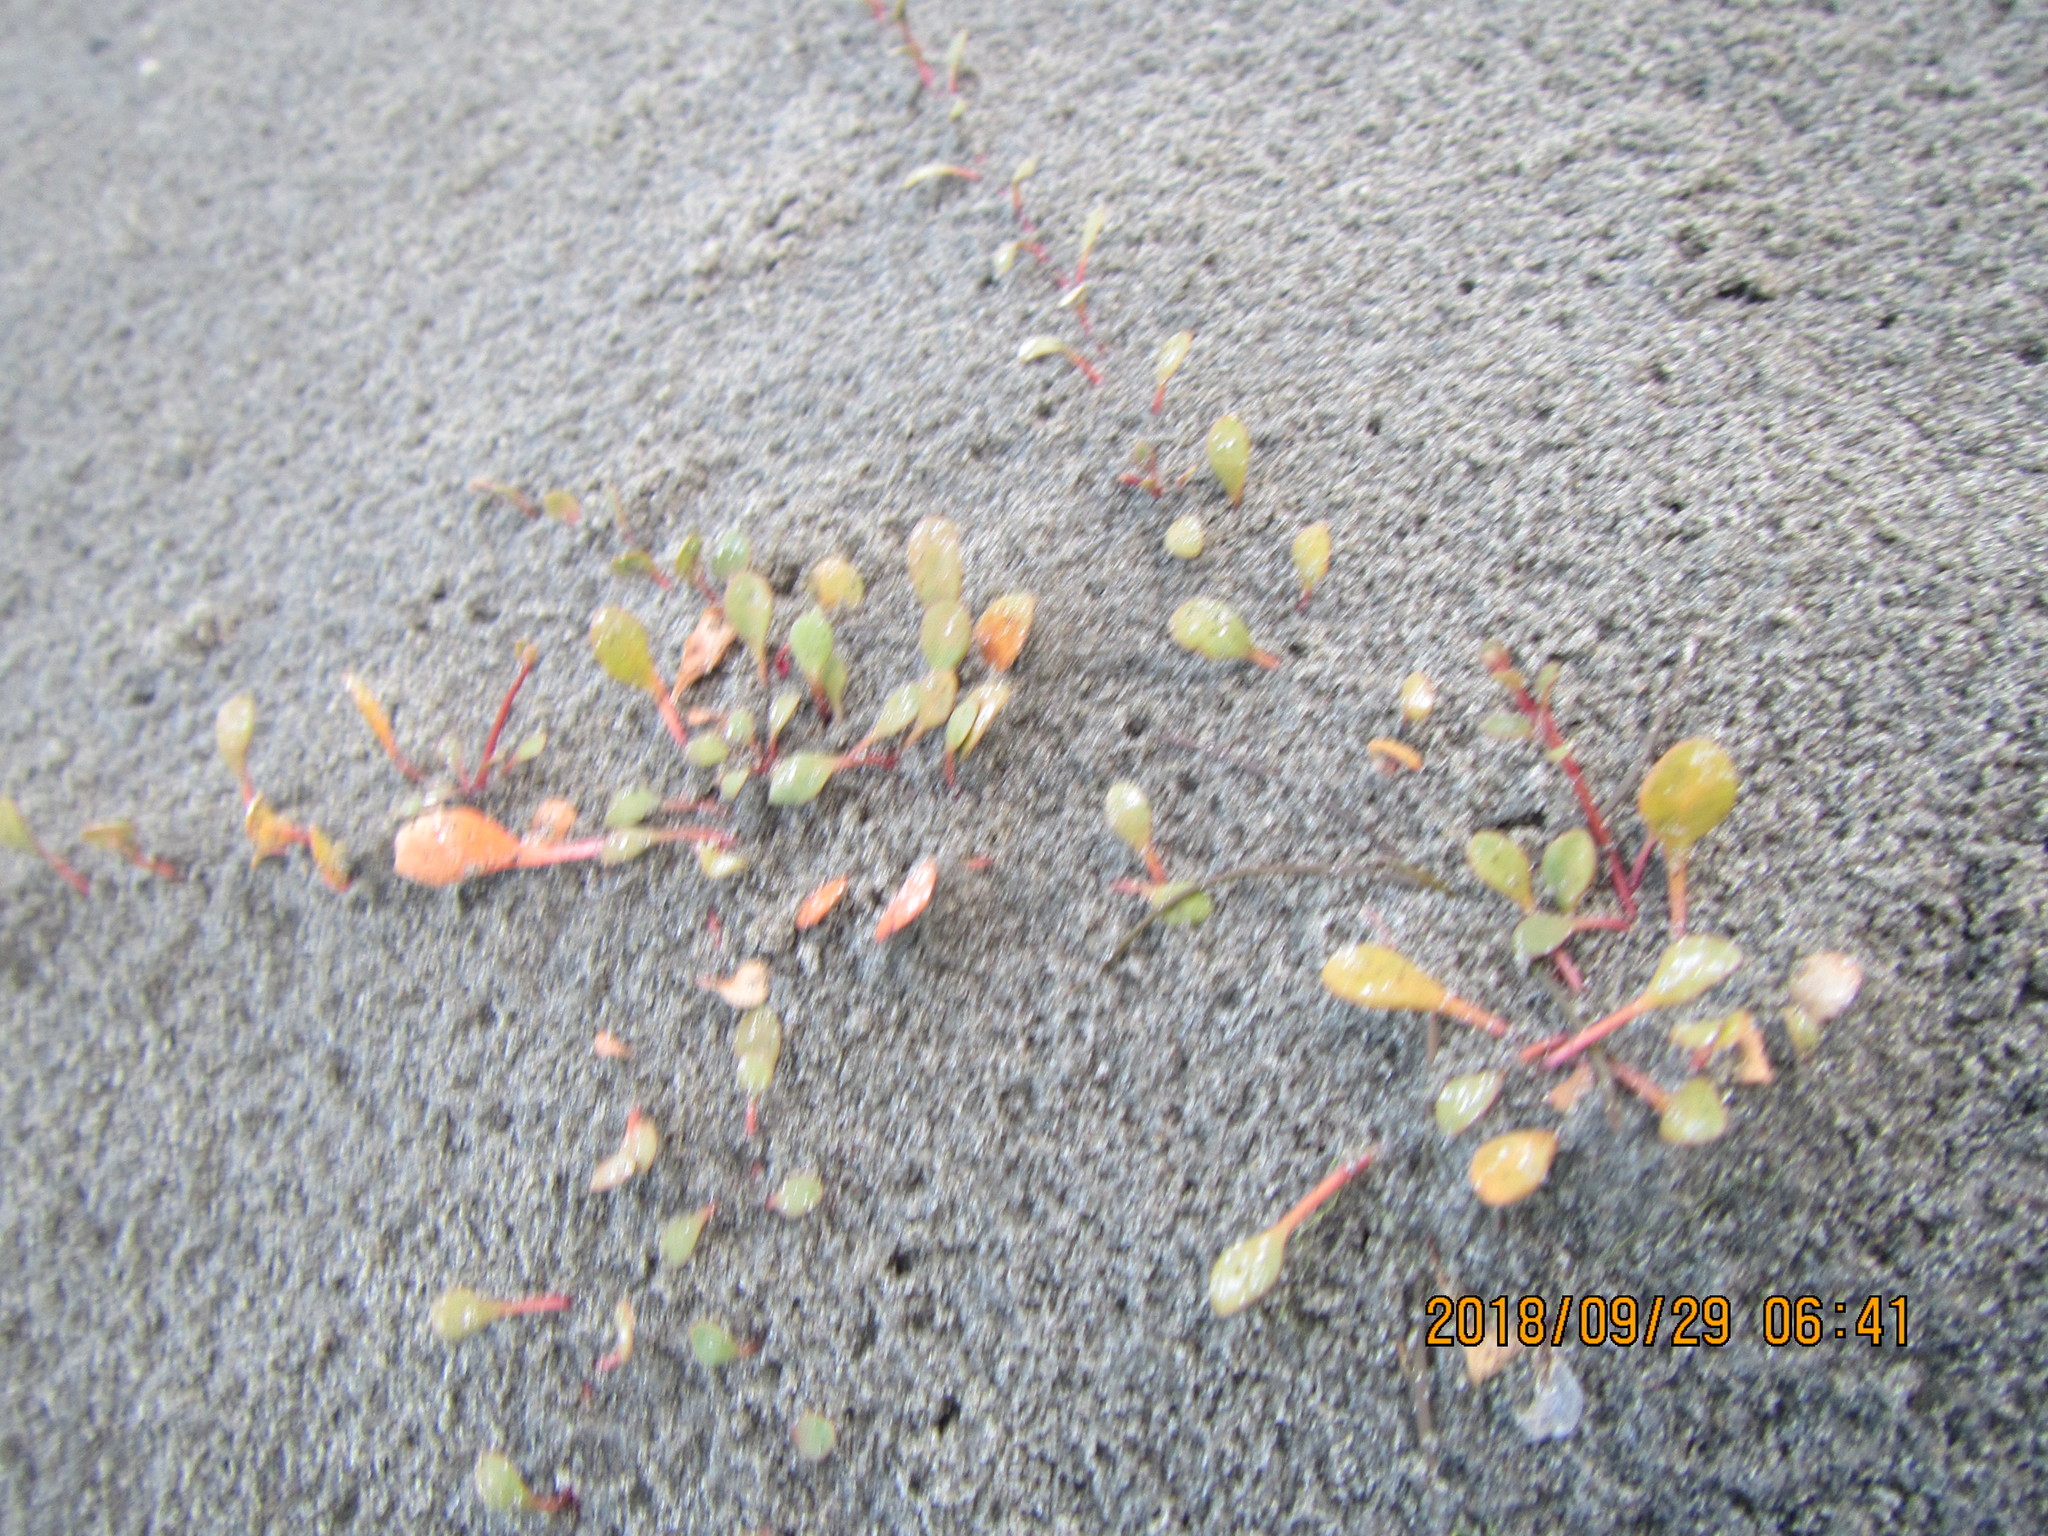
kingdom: Plantae
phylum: Tracheophyta
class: Magnoliopsida
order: Ericales
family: Primulaceae
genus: Samolus
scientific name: Samolus repens
